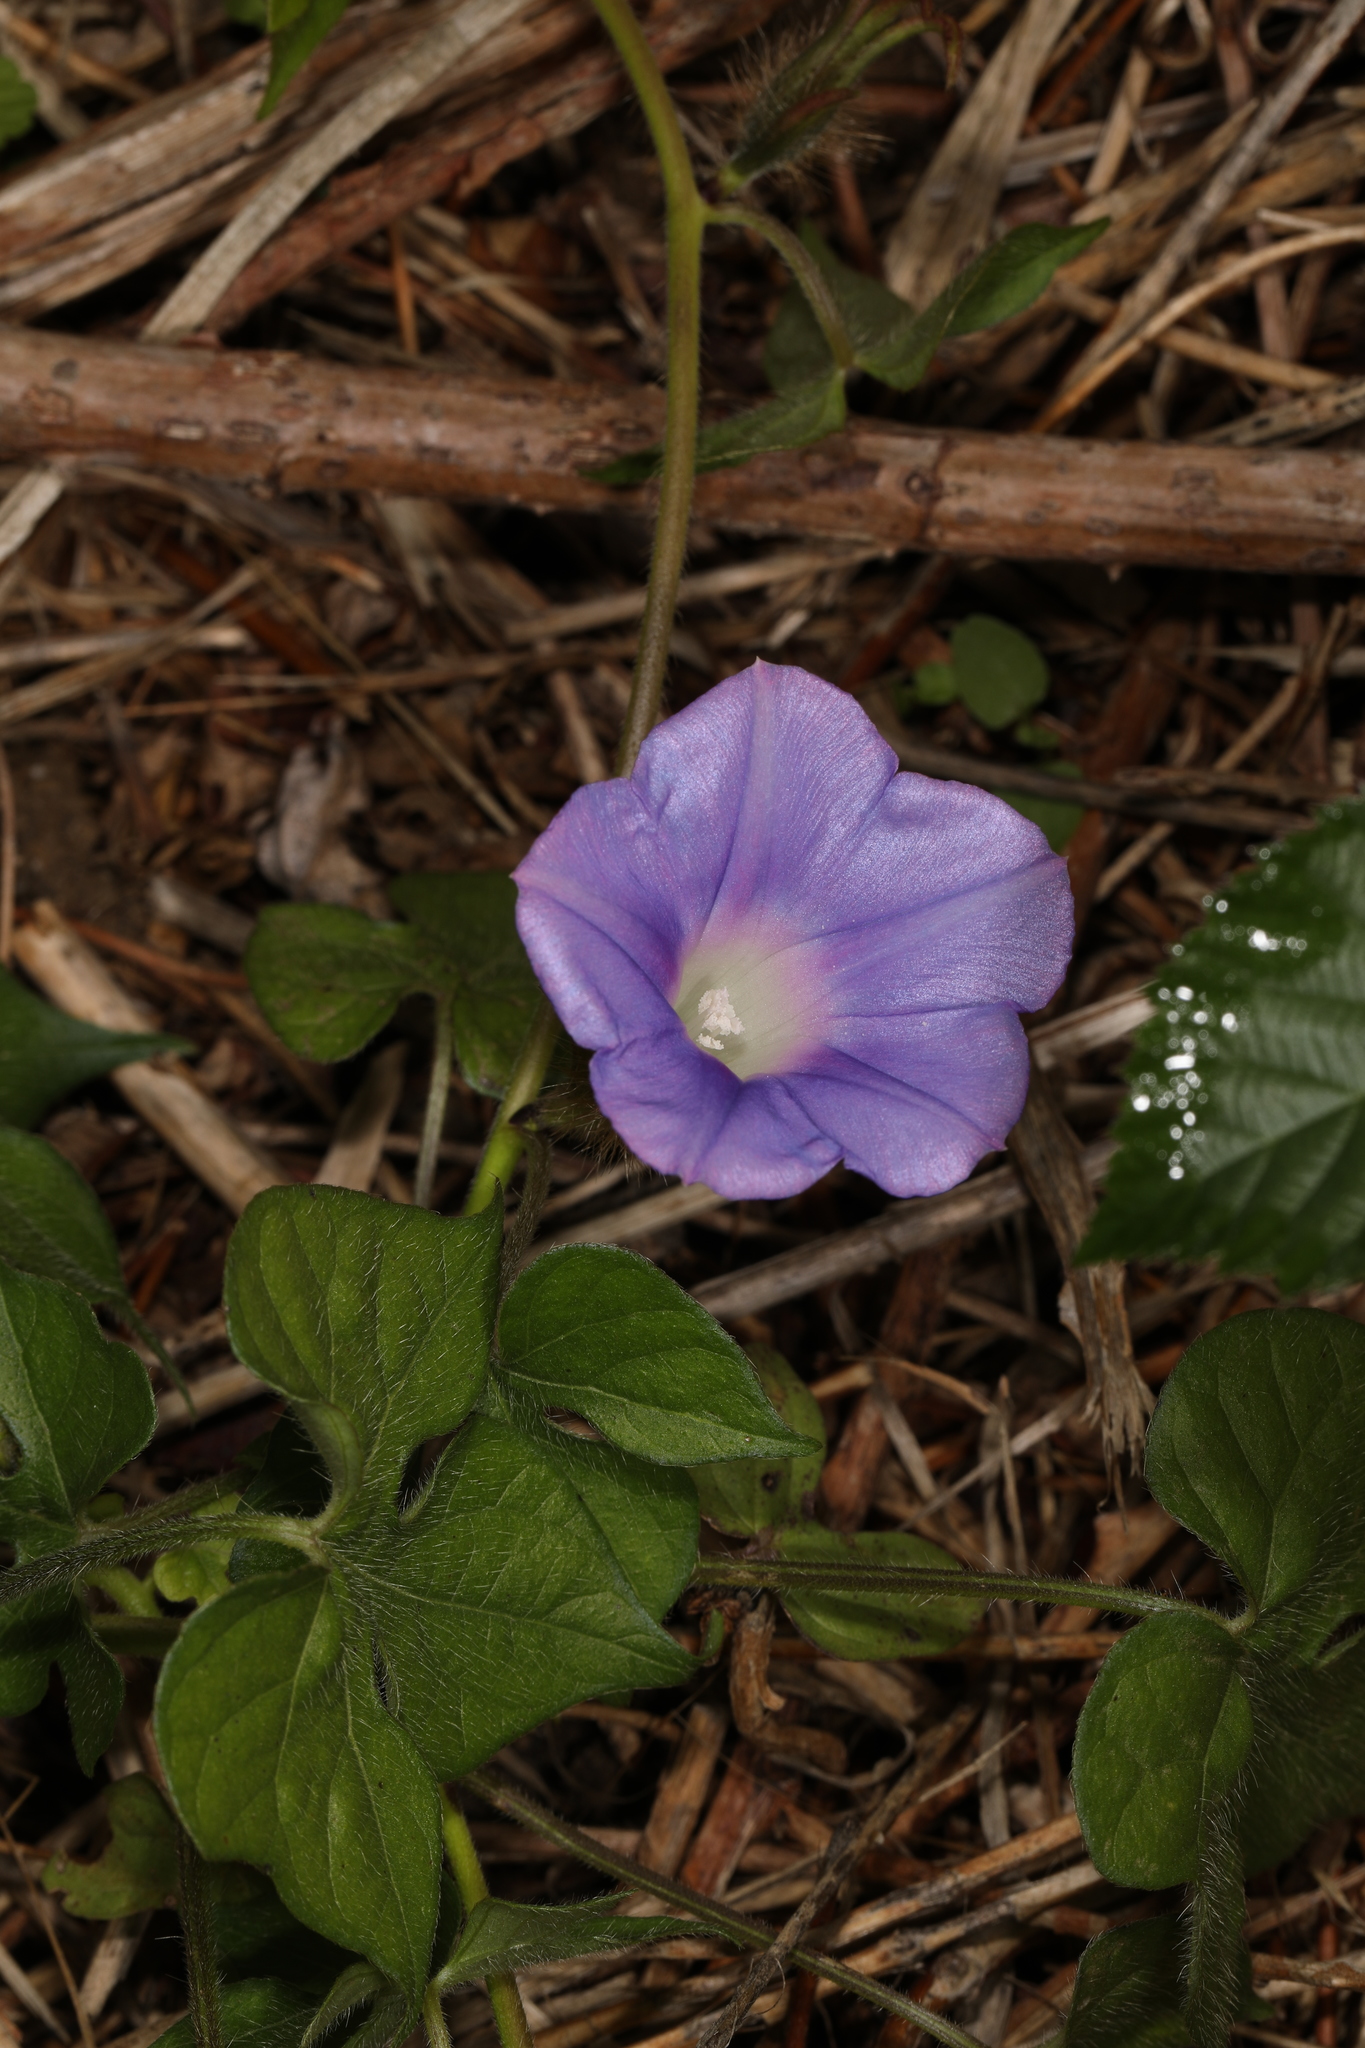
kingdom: Plantae
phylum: Tracheophyta
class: Magnoliopsida
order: Solanales
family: Convolvulaceae
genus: Ipomoea
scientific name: Ipomoea hederacea
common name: Ivy-leaved morning-glory
